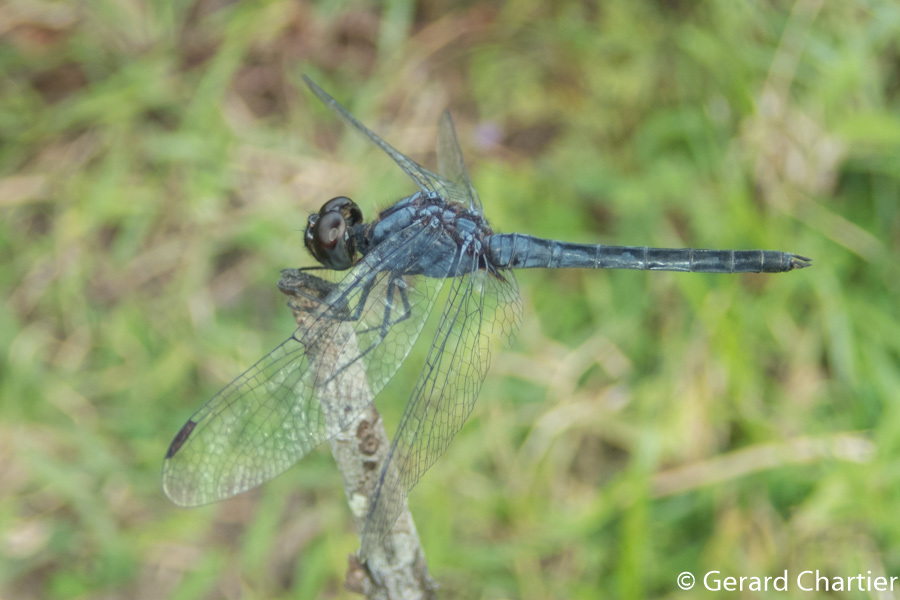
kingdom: Animalia
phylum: Arthropoda
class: Insecta
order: Odonata
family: Libellulidae
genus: Indothemis
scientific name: Indothemis carnatica
